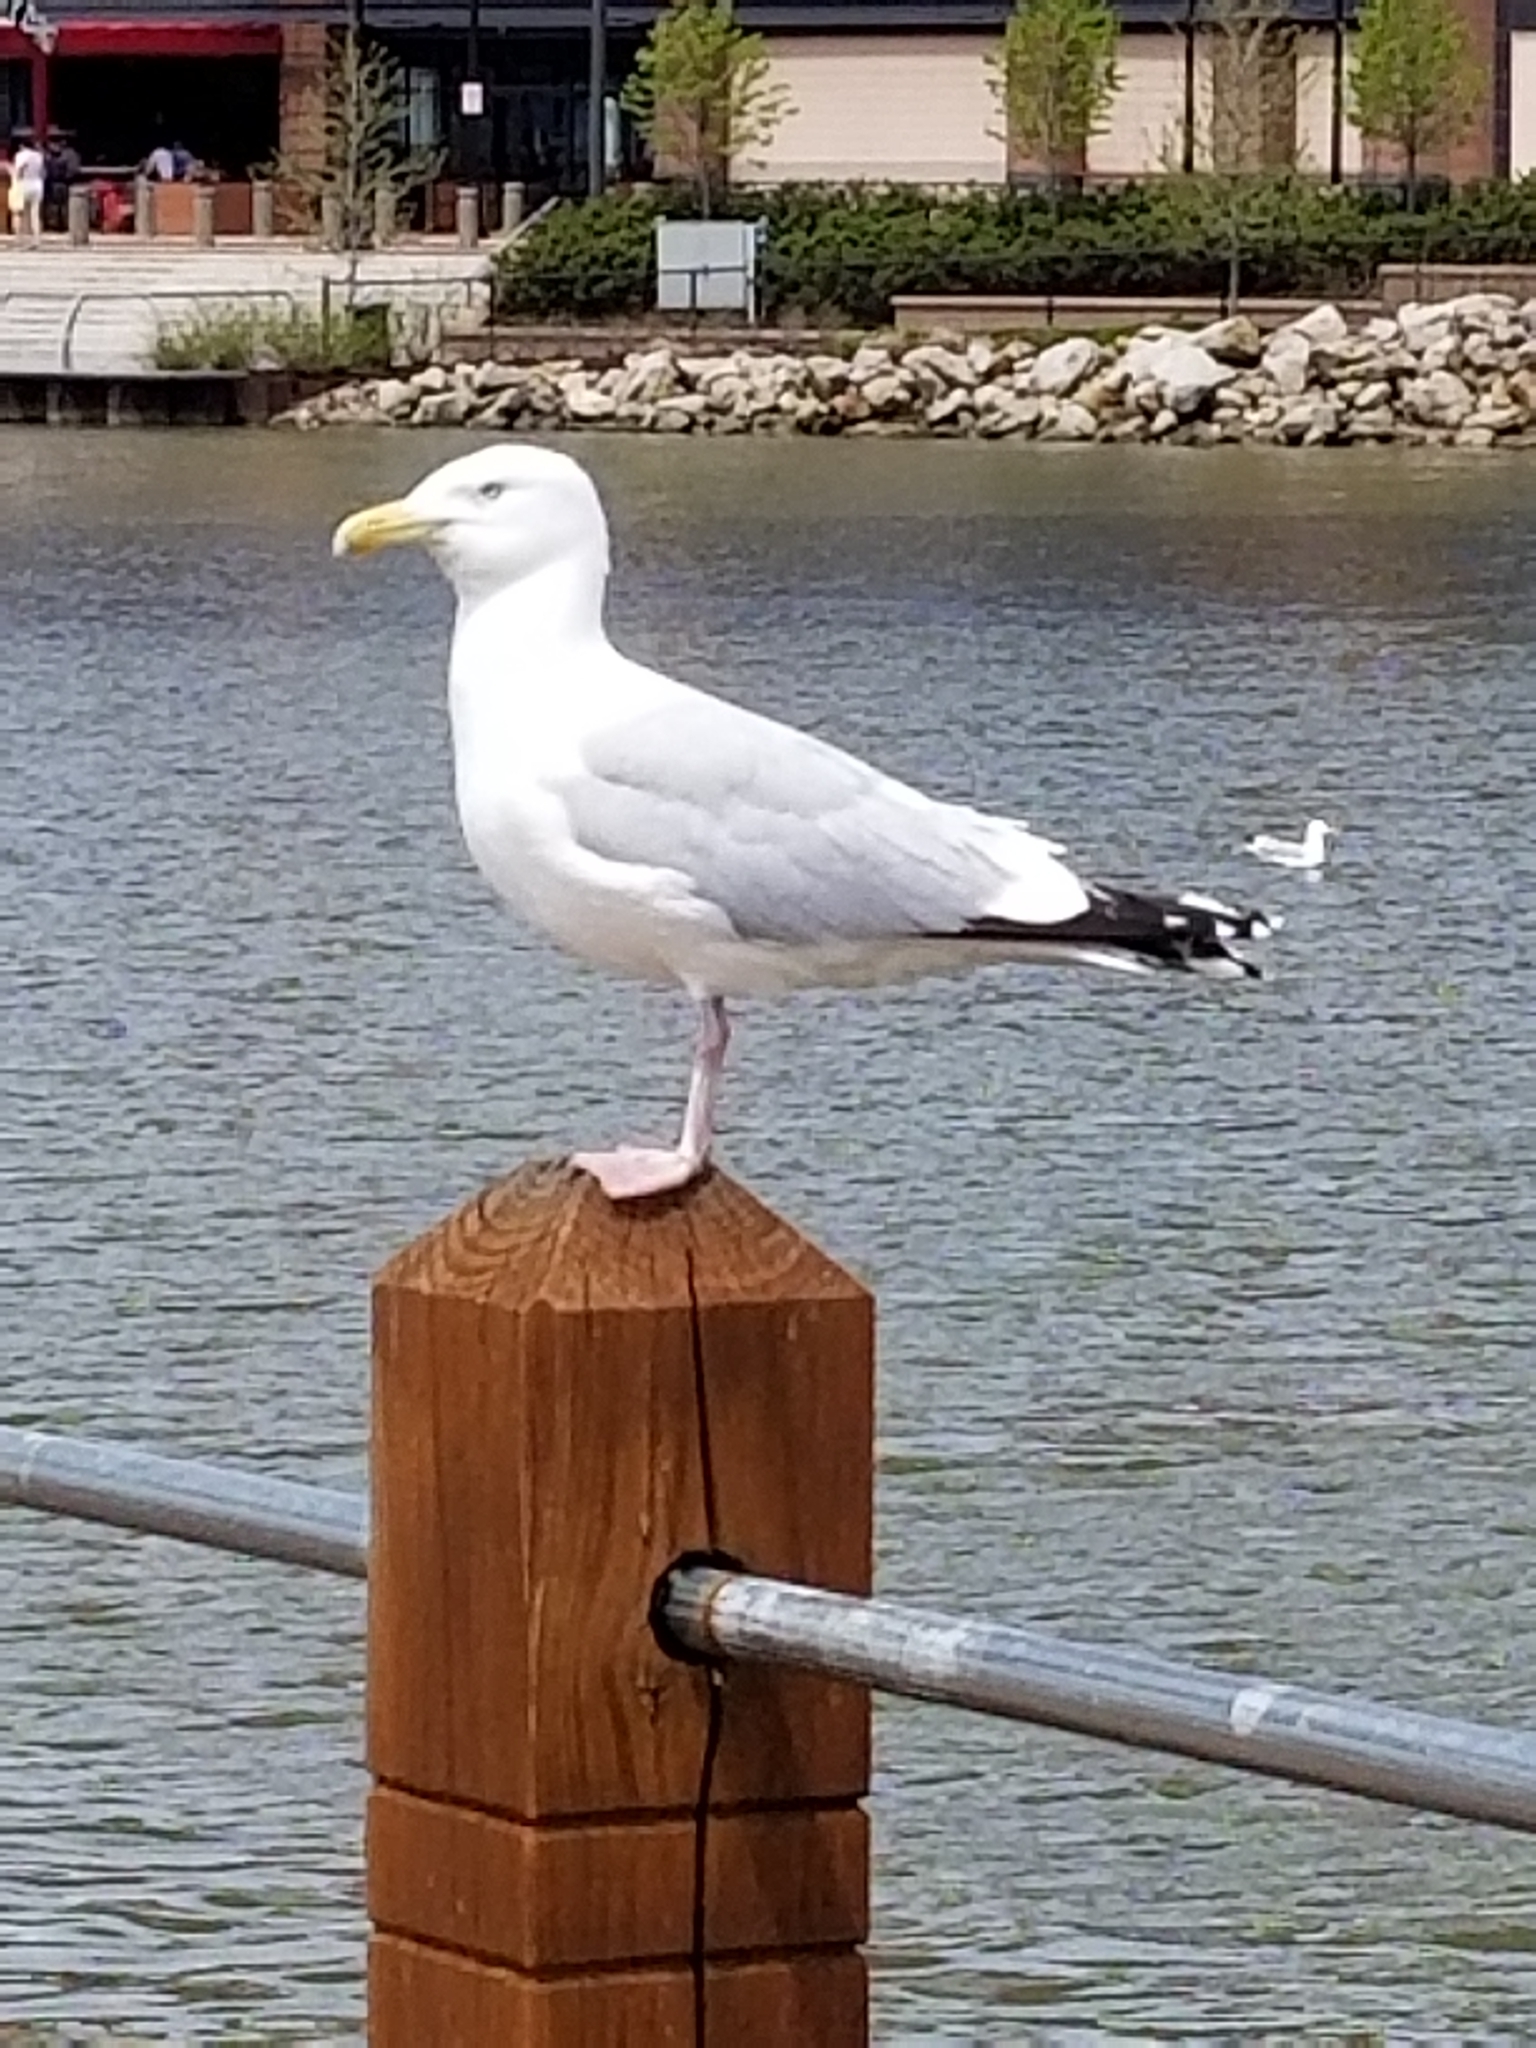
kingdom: Animalia
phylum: Chordata
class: Aves
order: Charadriiformes
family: Laridae
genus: Larus
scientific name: Larus argentatus
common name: Herring gull
